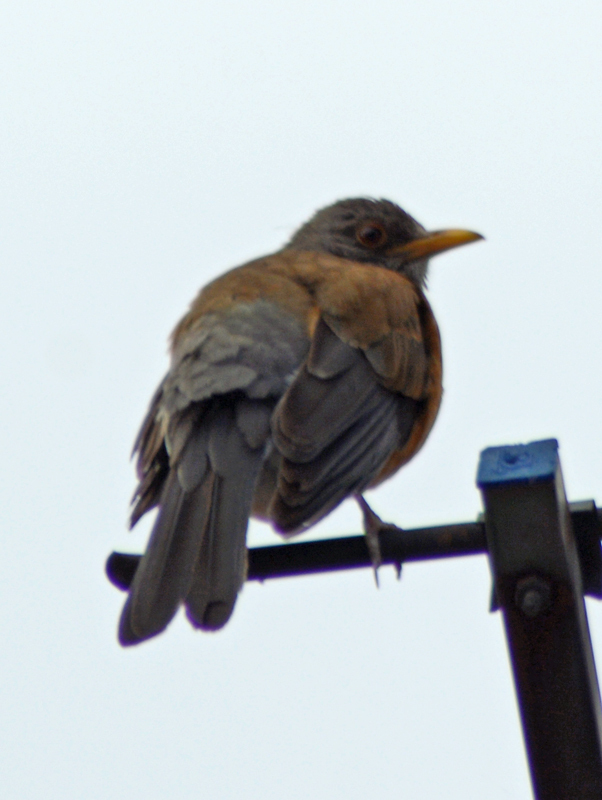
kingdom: Animalia
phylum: Chordata
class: Aves
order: Passeriformes
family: Turdidae
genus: Turdus
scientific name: Turdus rufopalliatus
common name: Rufous-backed robin
